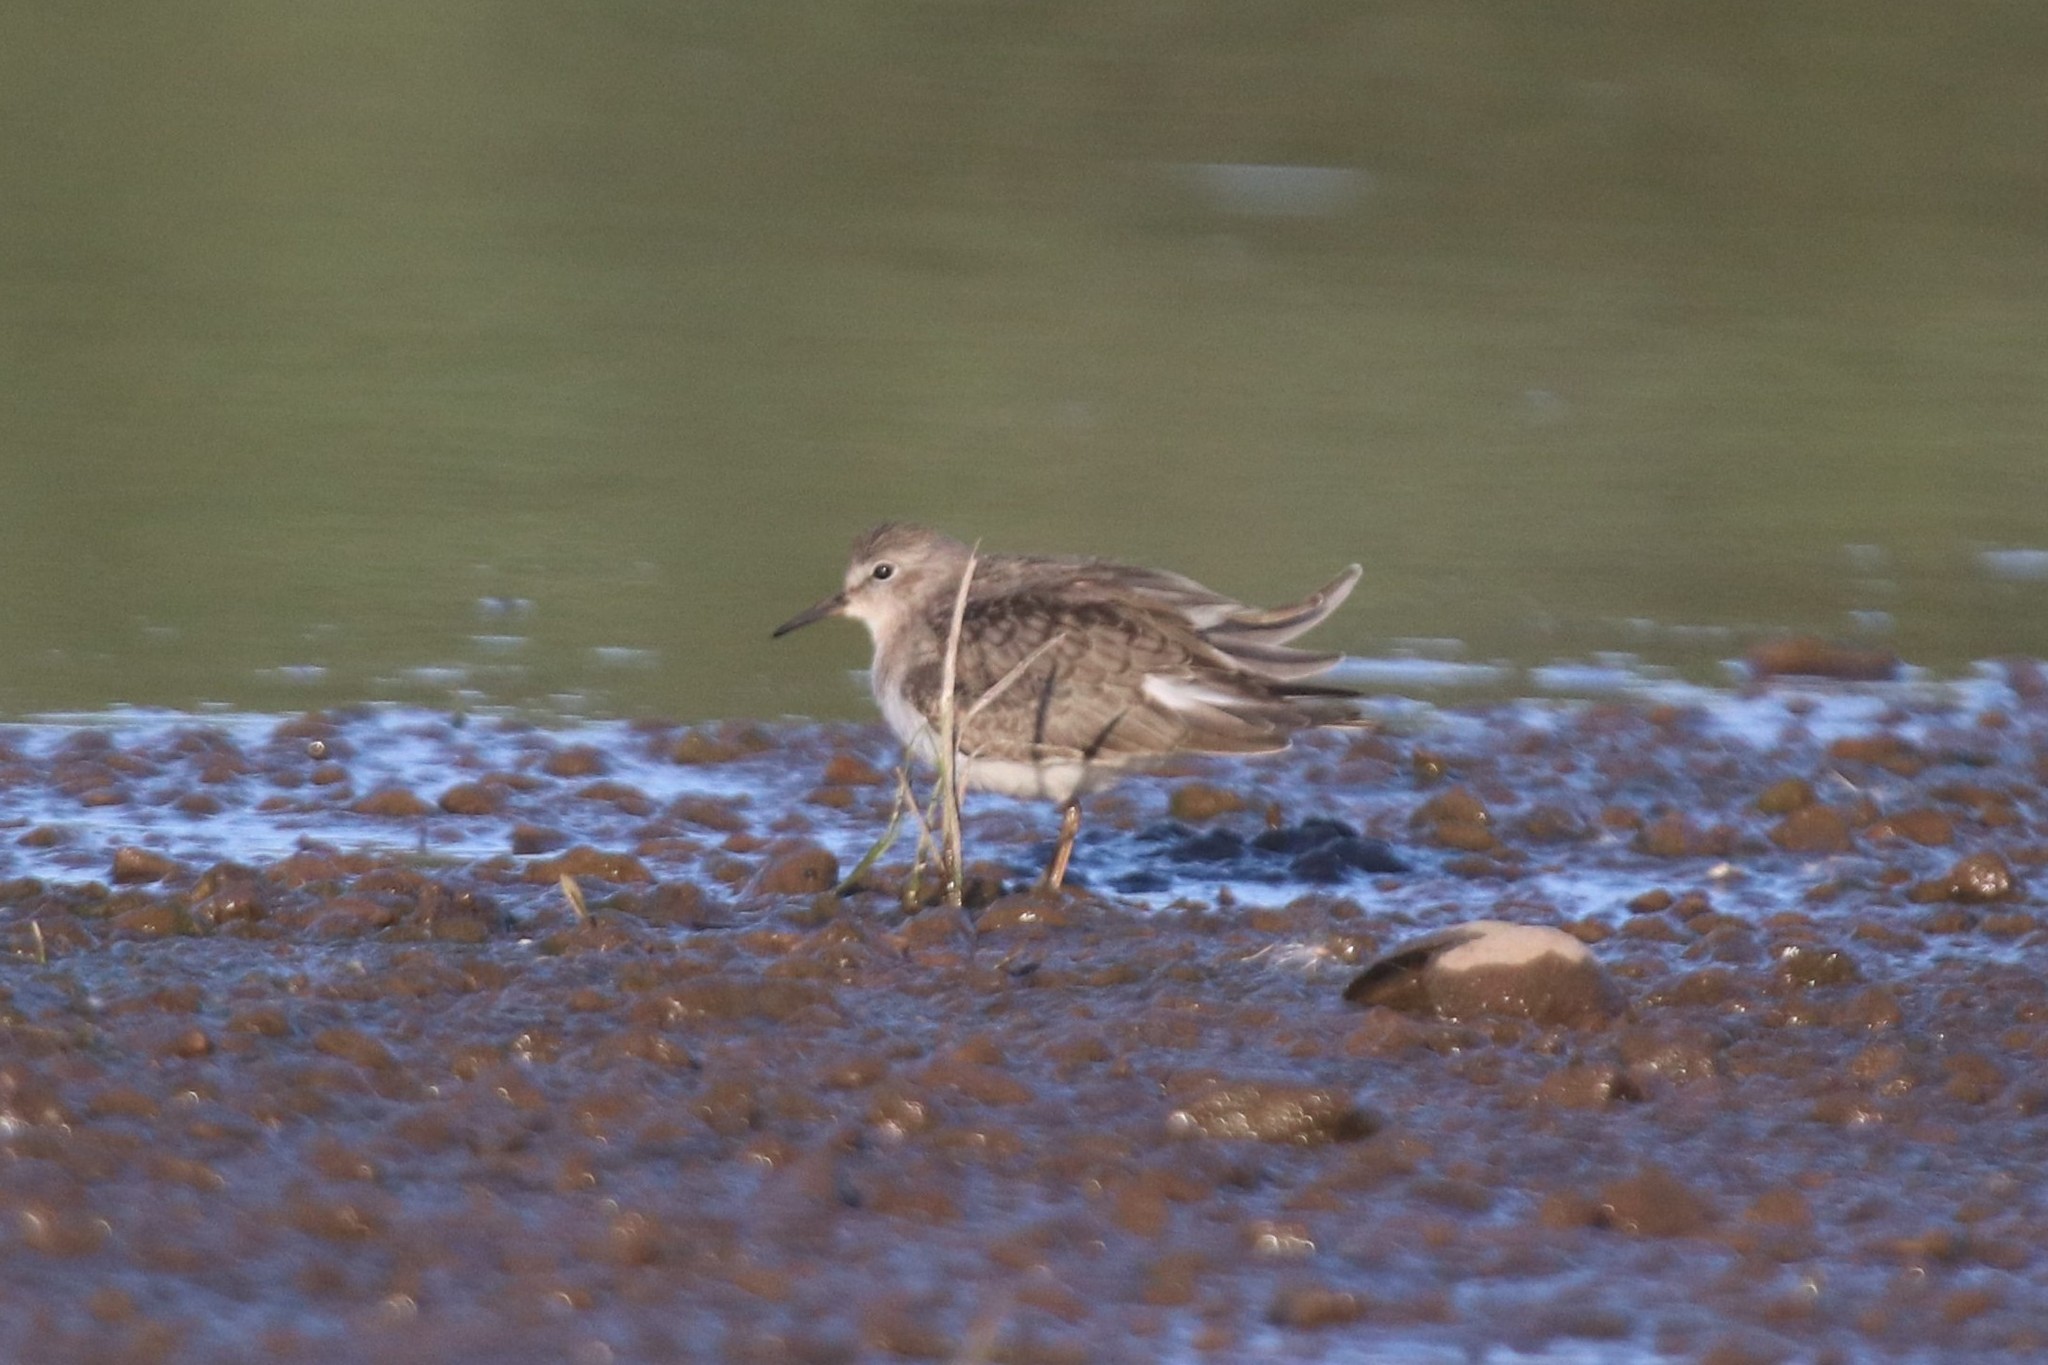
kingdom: Animalia
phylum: Chordata
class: Aves
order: Charadriiformes
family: Scolopacidae
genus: Calidris
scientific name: Calidris temminckii
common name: Temminck's stint
